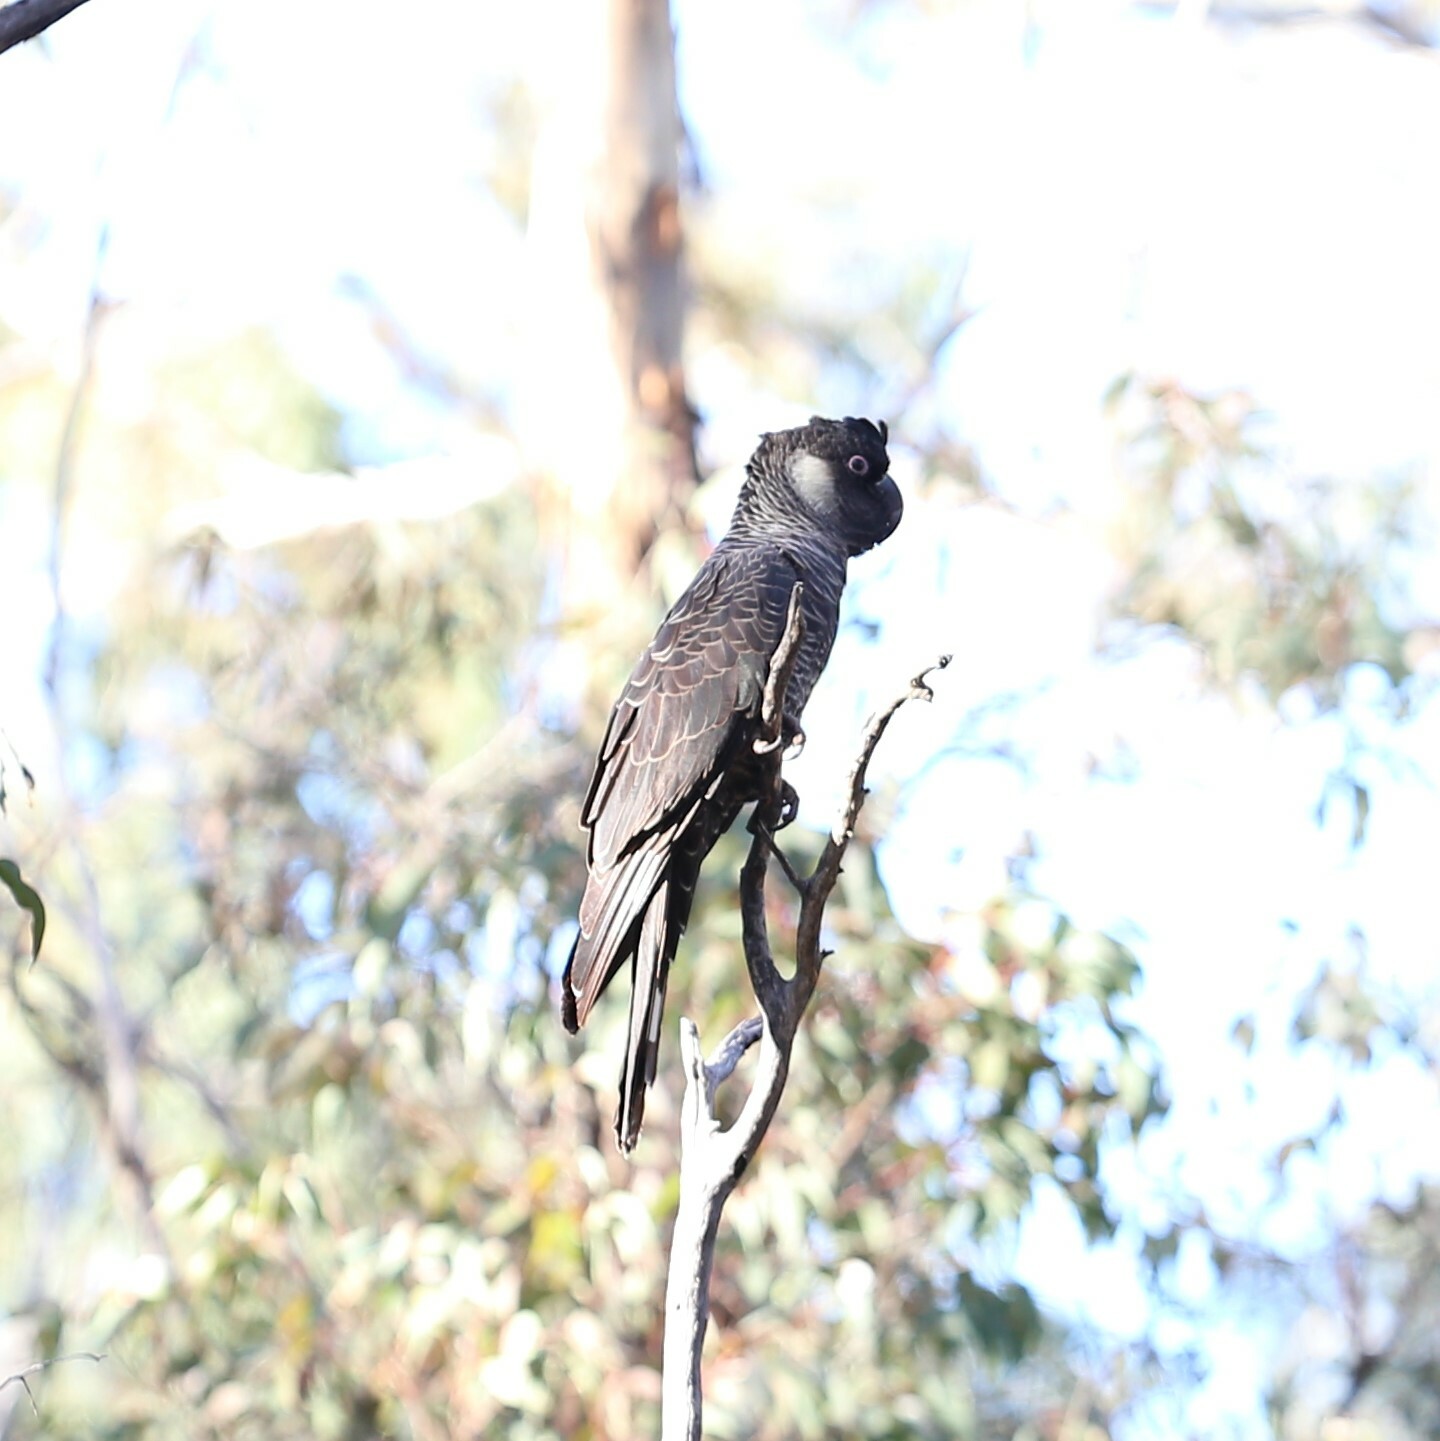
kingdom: Animalia
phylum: Chordata
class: Aves
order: Psittaciformes
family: Cacatuidae
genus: Zanda
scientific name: Zanda baudinii
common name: Long-billed black-cockatoo
